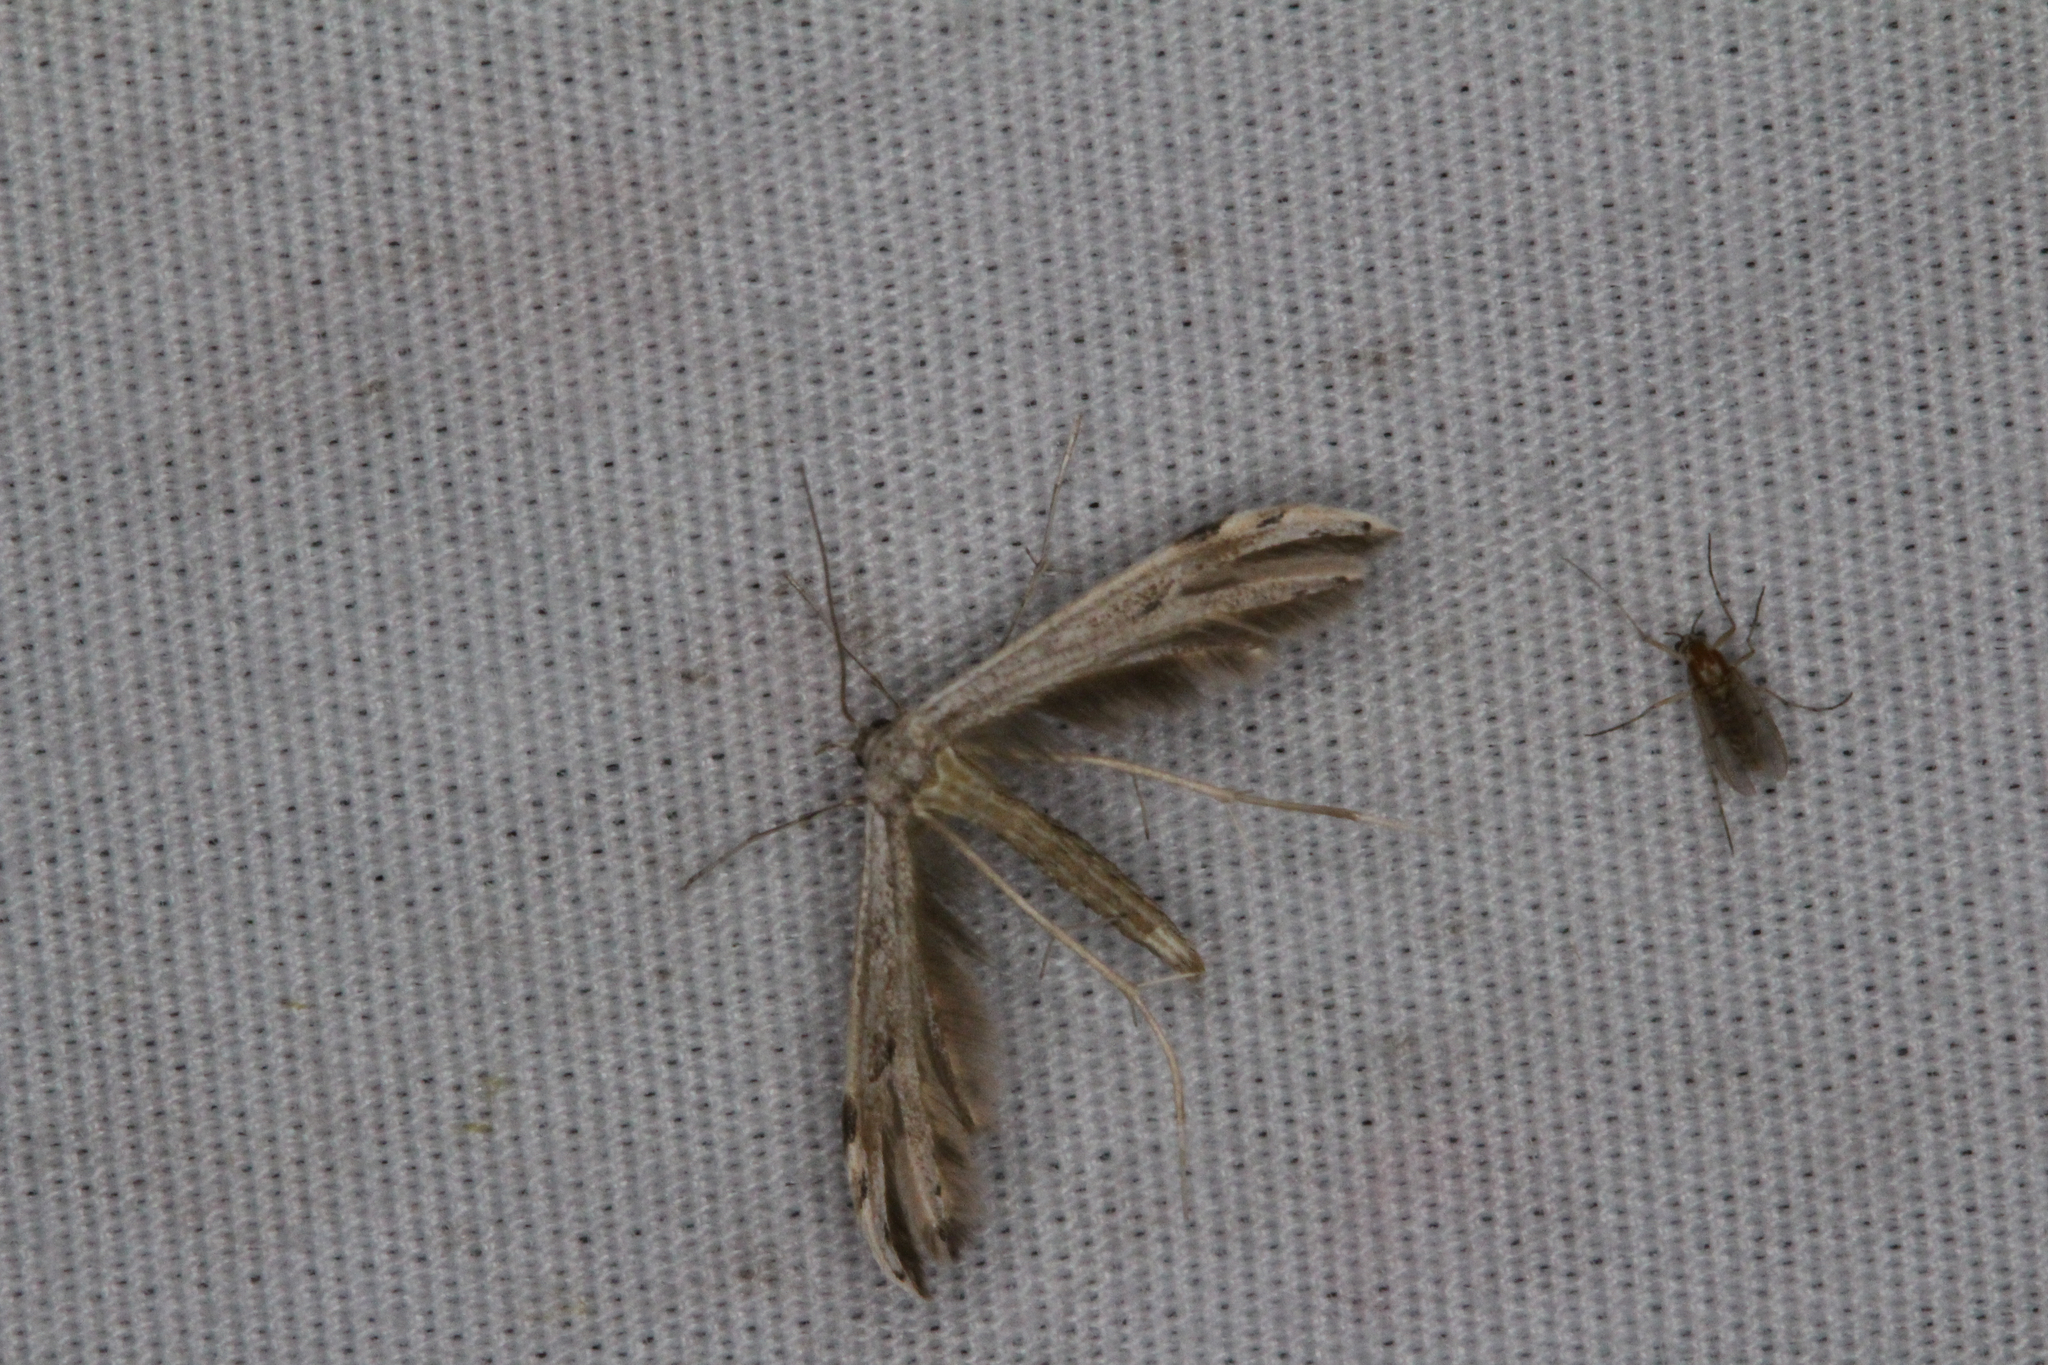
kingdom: Animalia
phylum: Arthropoda
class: Insecta
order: Lepidoptera
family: Pterophoridae
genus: Pselnophorus
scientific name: Pselnophorus belfragei
